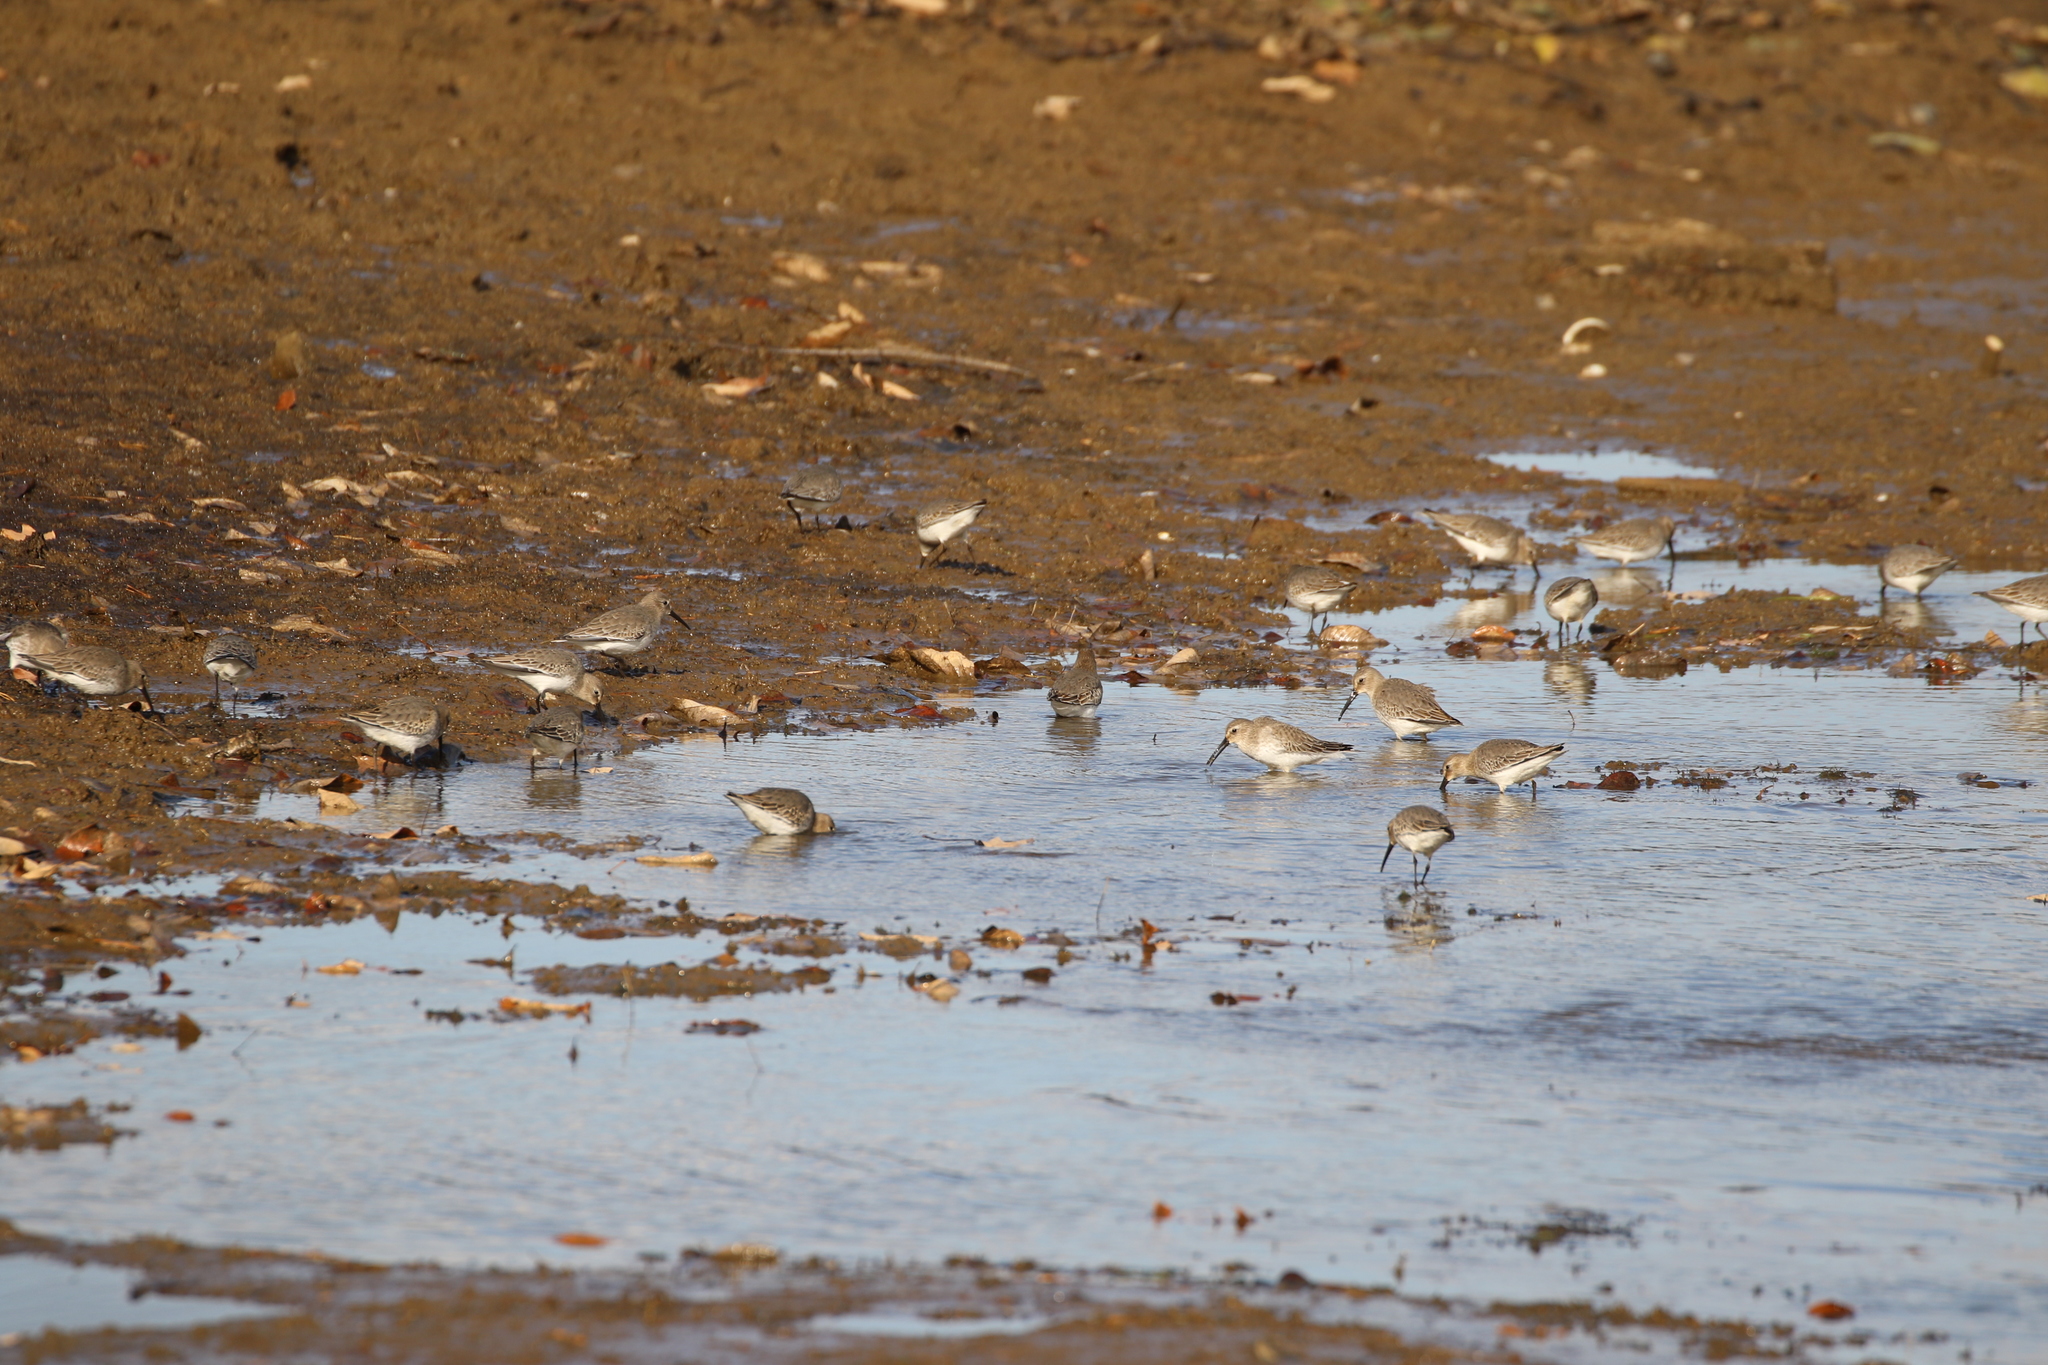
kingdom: Animalia
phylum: Chordata
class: Aves
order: Charadriiformes
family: Scolopacidae
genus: Calidris
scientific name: Calidris alpina
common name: Dunlin
